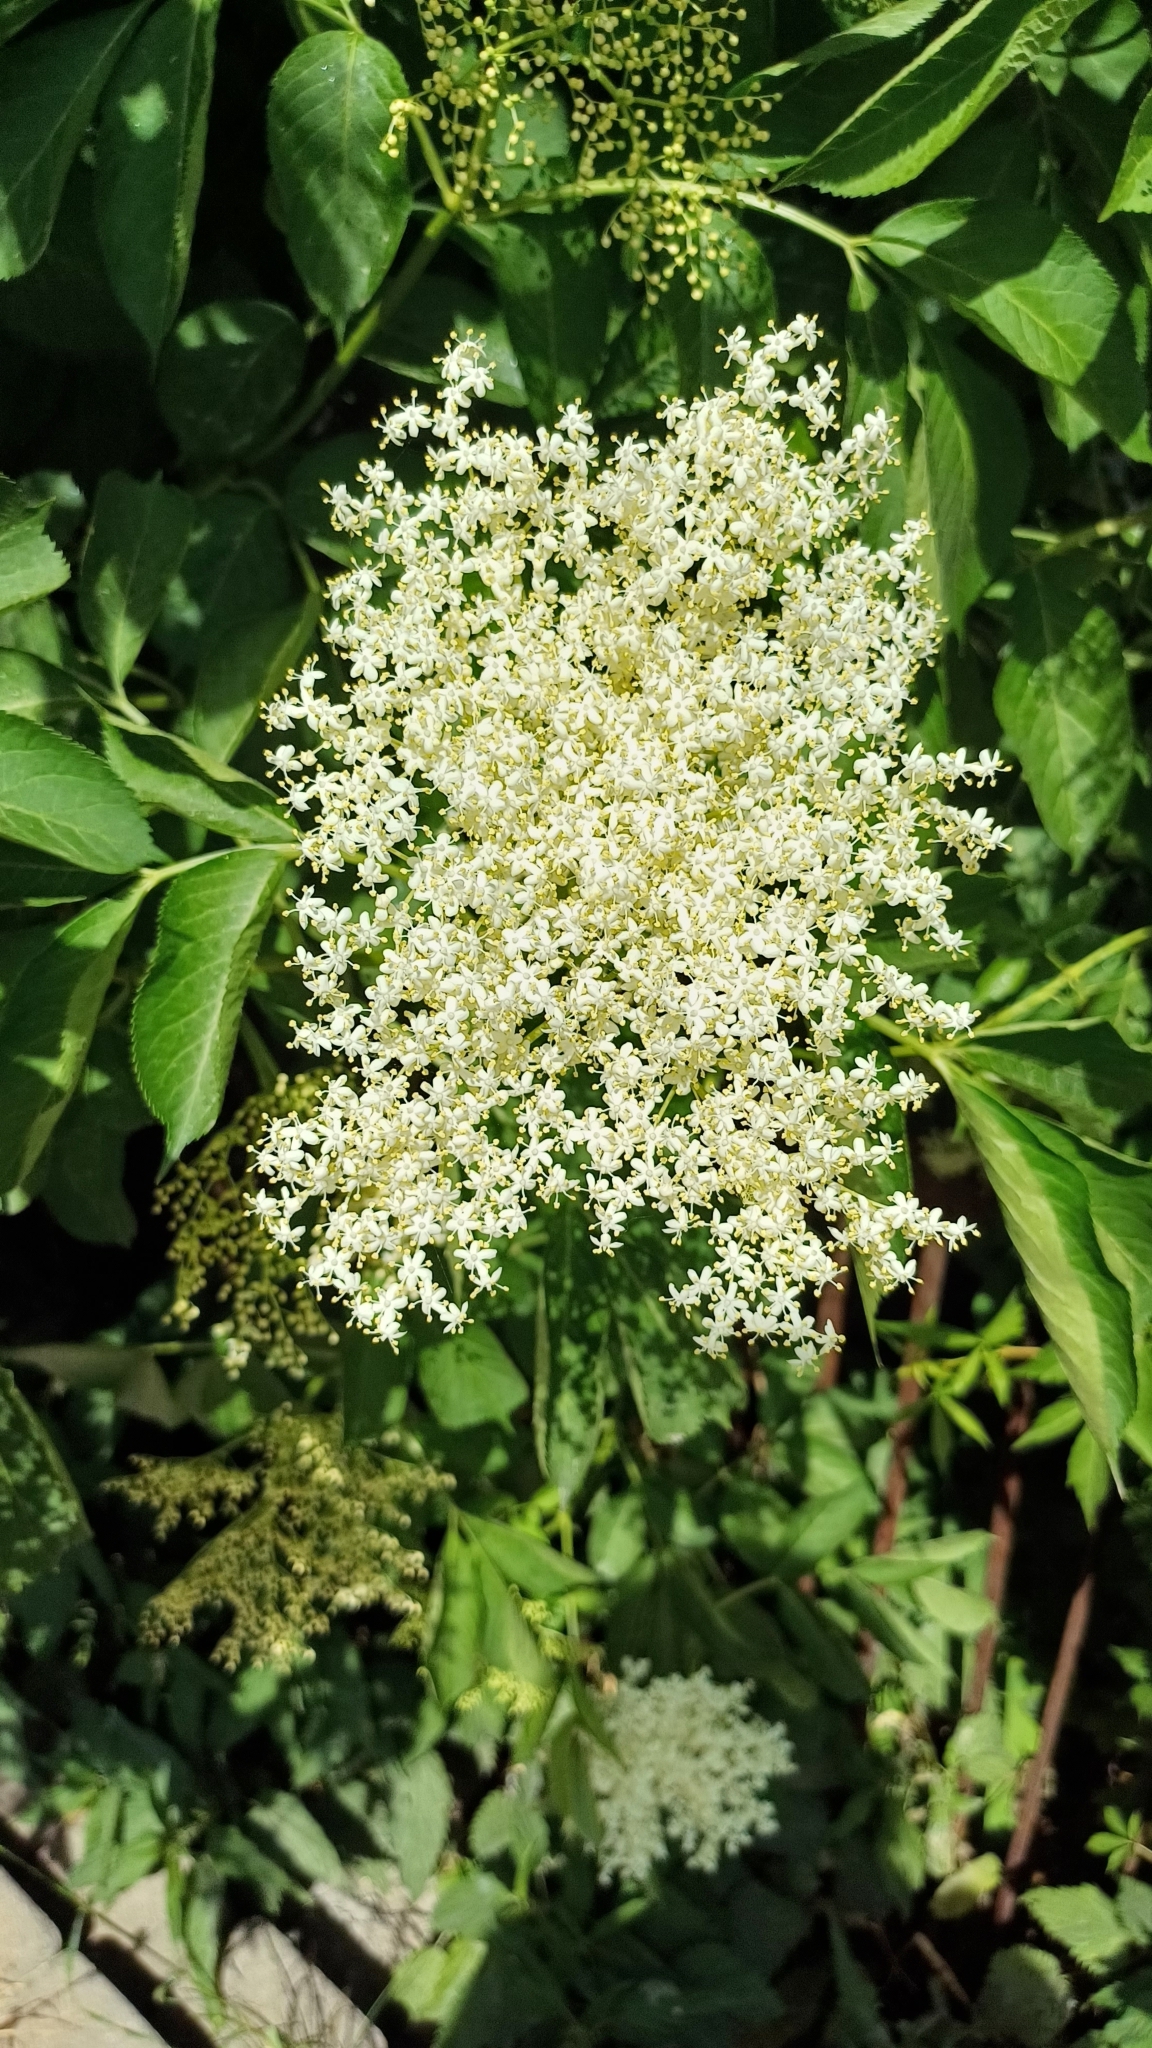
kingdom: Plantae
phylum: Tracheophyta
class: Magnoliopsida
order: Dipsacales
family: Viburnaceae
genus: Sambucus
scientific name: Sambucus nigra
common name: Elder
